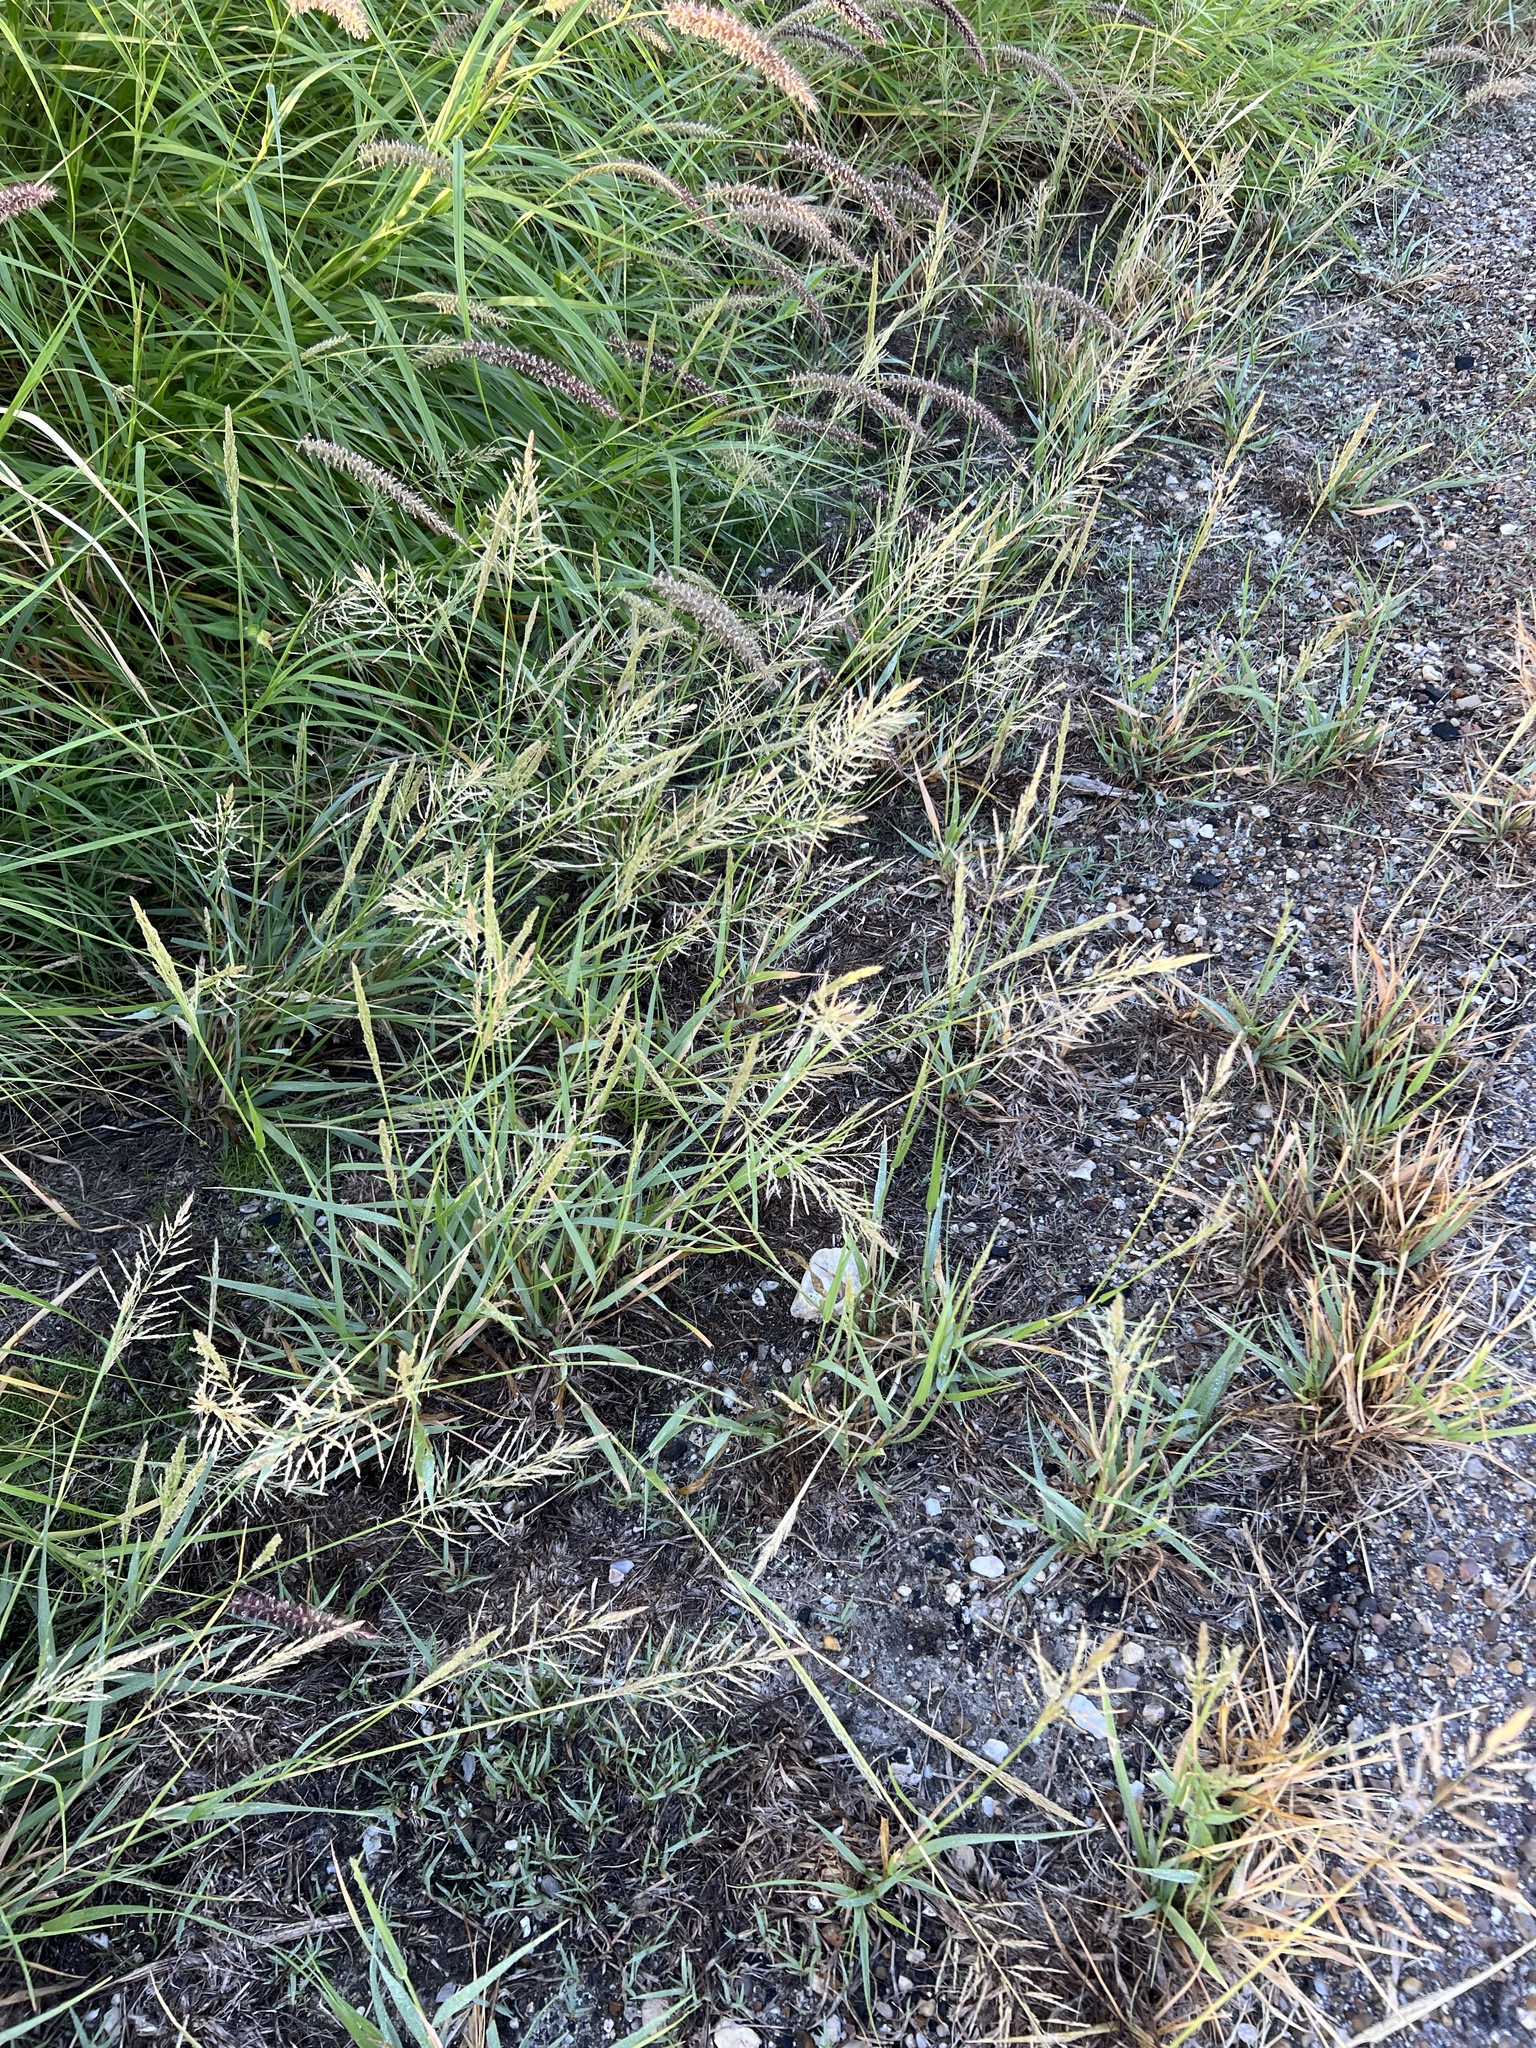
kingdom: Plantae
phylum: Tracheophyta
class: Liliopsida
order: Poales
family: Poaceae
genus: Sporobolus
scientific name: Sporobolus pyramidatus
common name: Whorled dropseed
